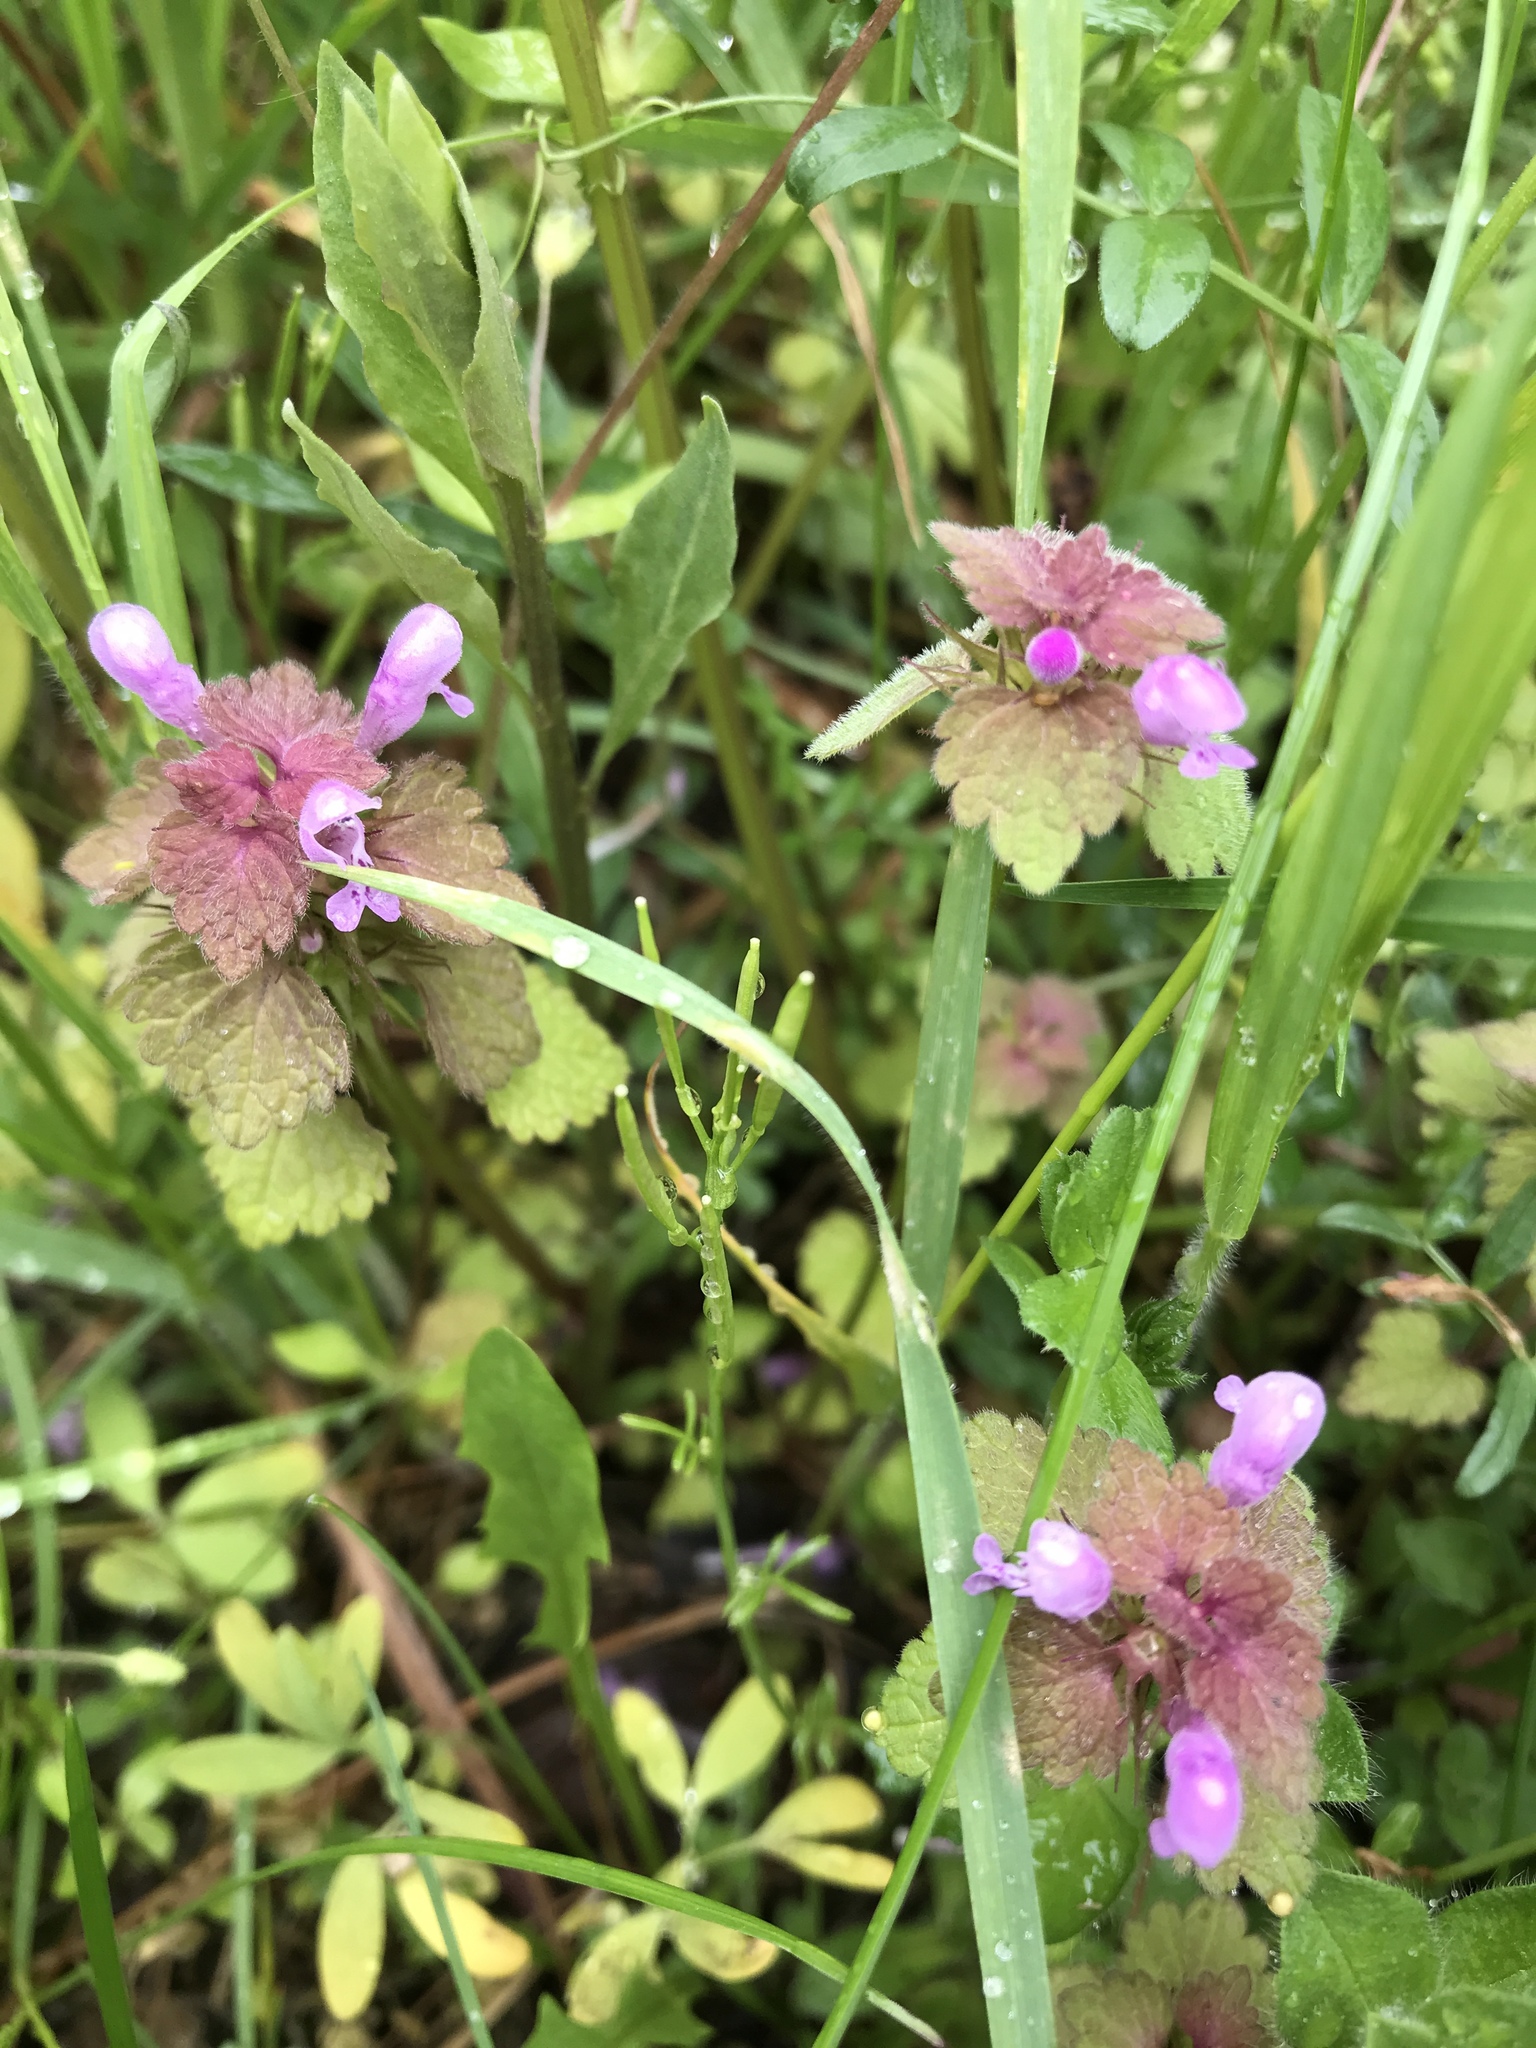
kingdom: Plantae
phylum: Tracheophyta
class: Magnoliopsida
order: Lamiales
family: Lamiaceae
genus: Lamium
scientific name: Lamium purpureum
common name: Red dead-nettle
